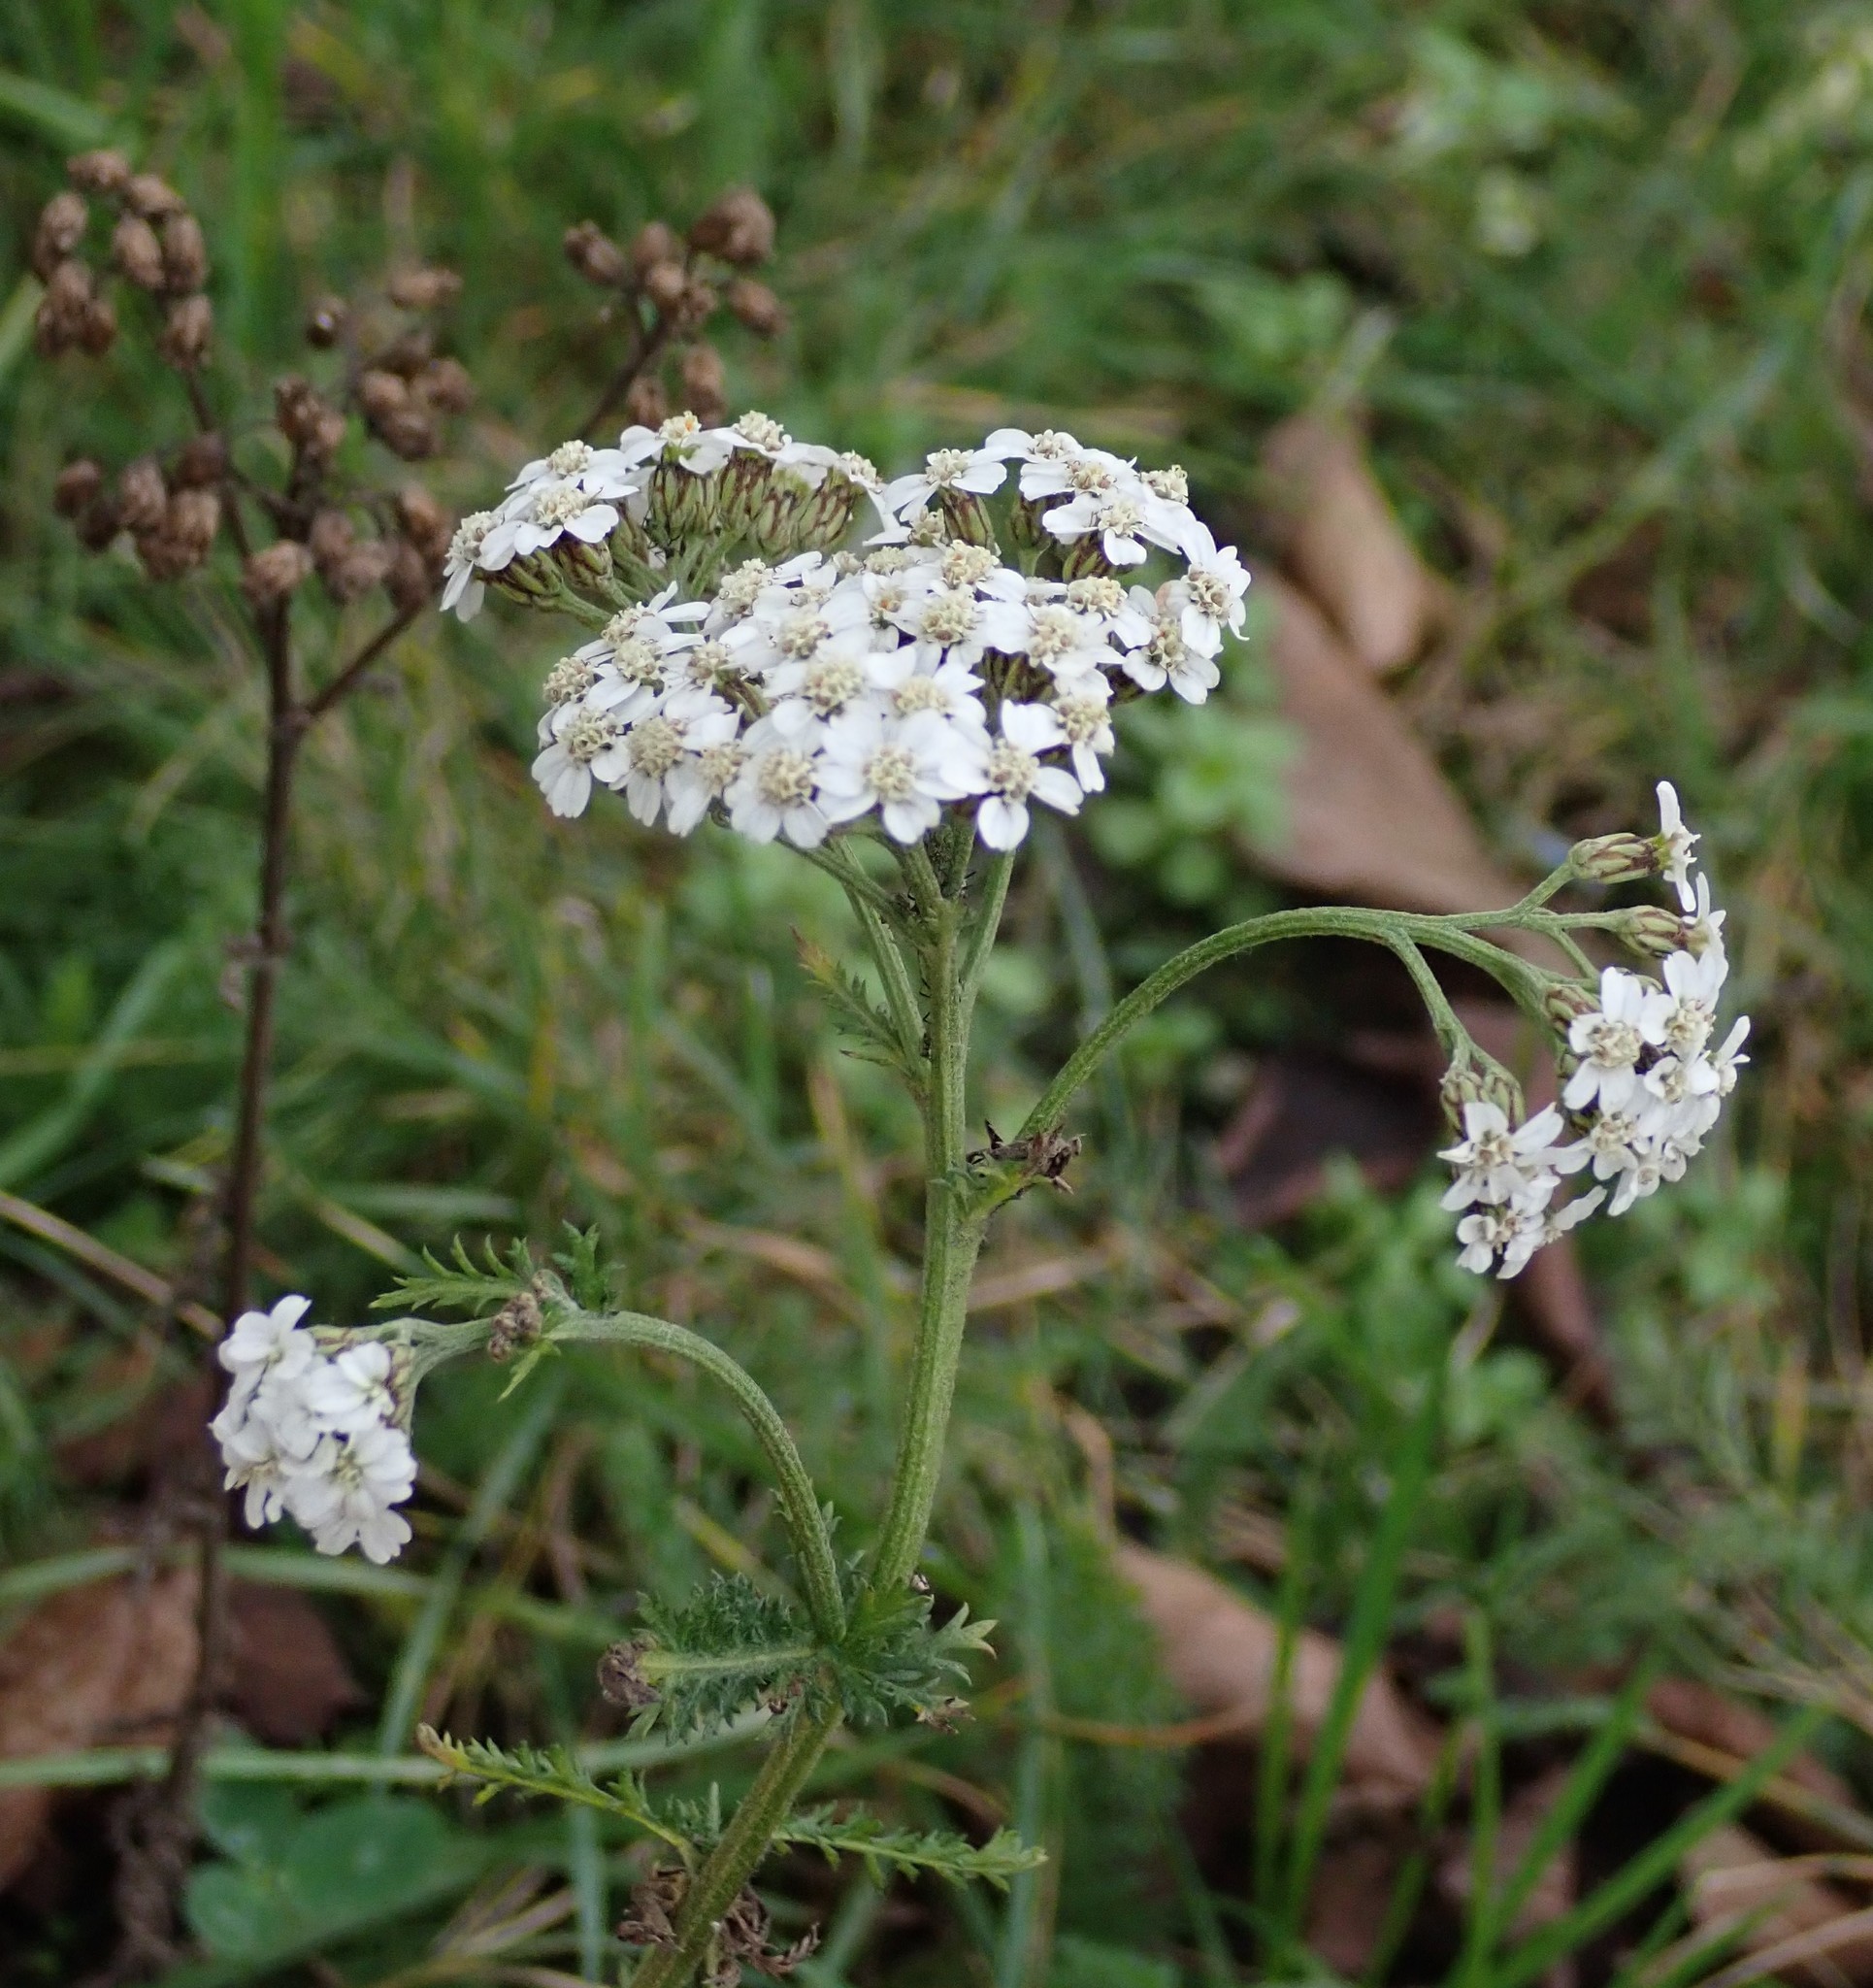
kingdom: Plantae
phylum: Tracheophyta
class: Magnoliopsida
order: Asterales
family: Asteraceae
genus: Achillea
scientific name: Achillea millefolium
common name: Yarrow
